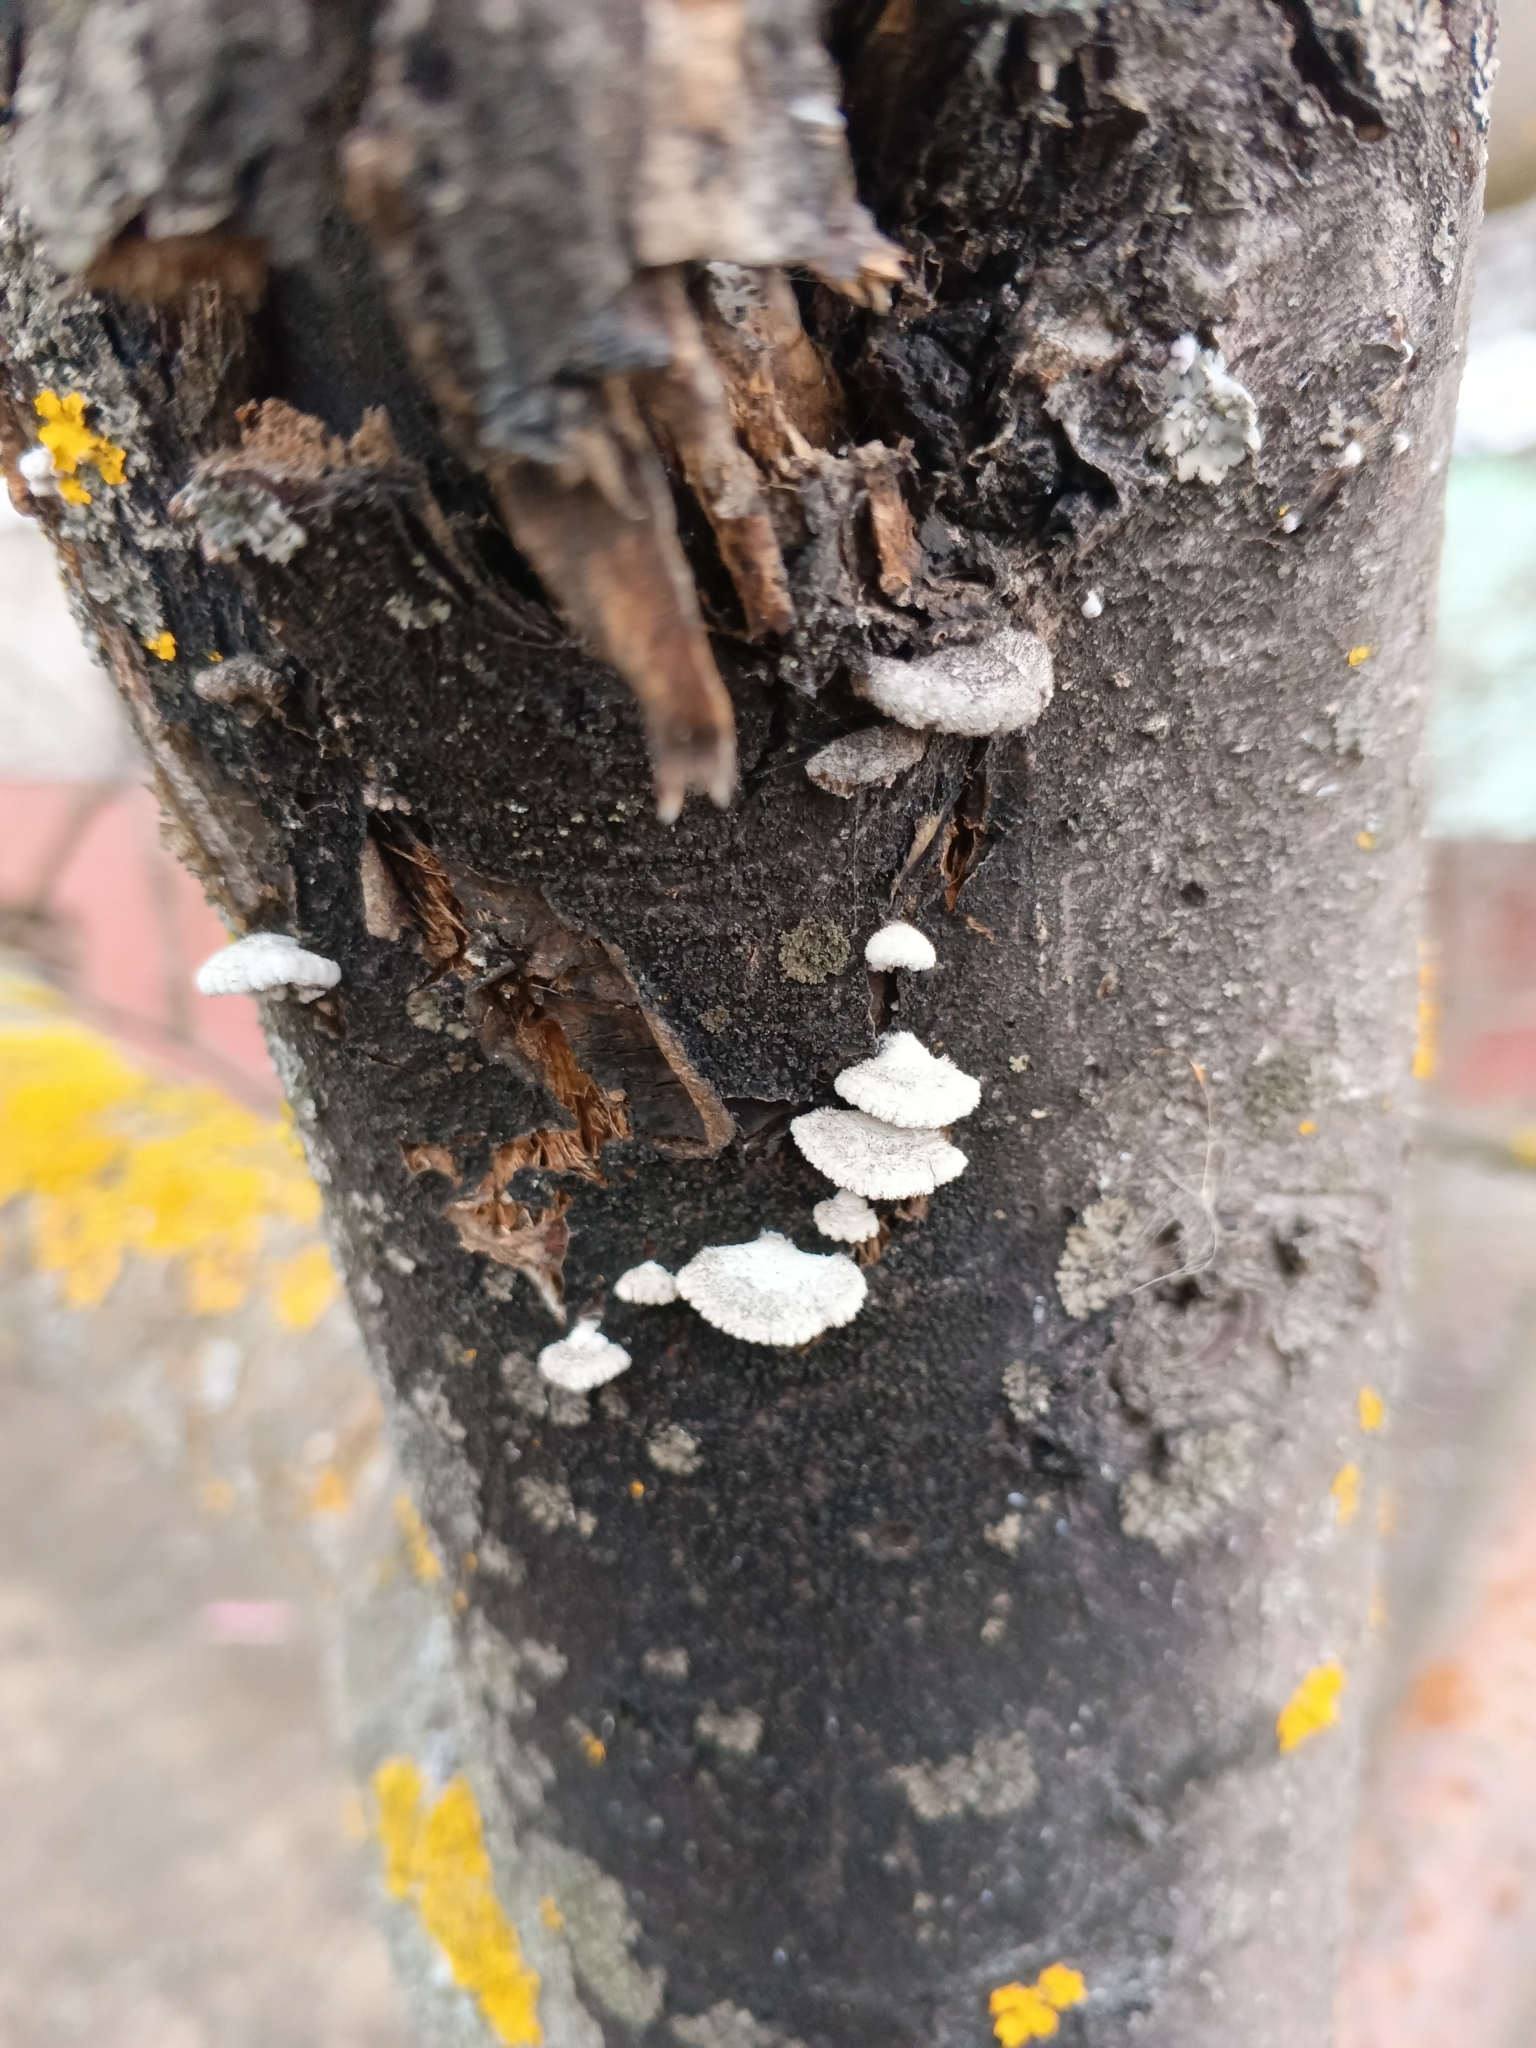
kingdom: Fungi
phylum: Basidiomycota
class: Agaricomycetes
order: Agaricales
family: Schizophyllaceae
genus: Schizophyllum
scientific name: Schizophyllum commune
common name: Common porecrust
